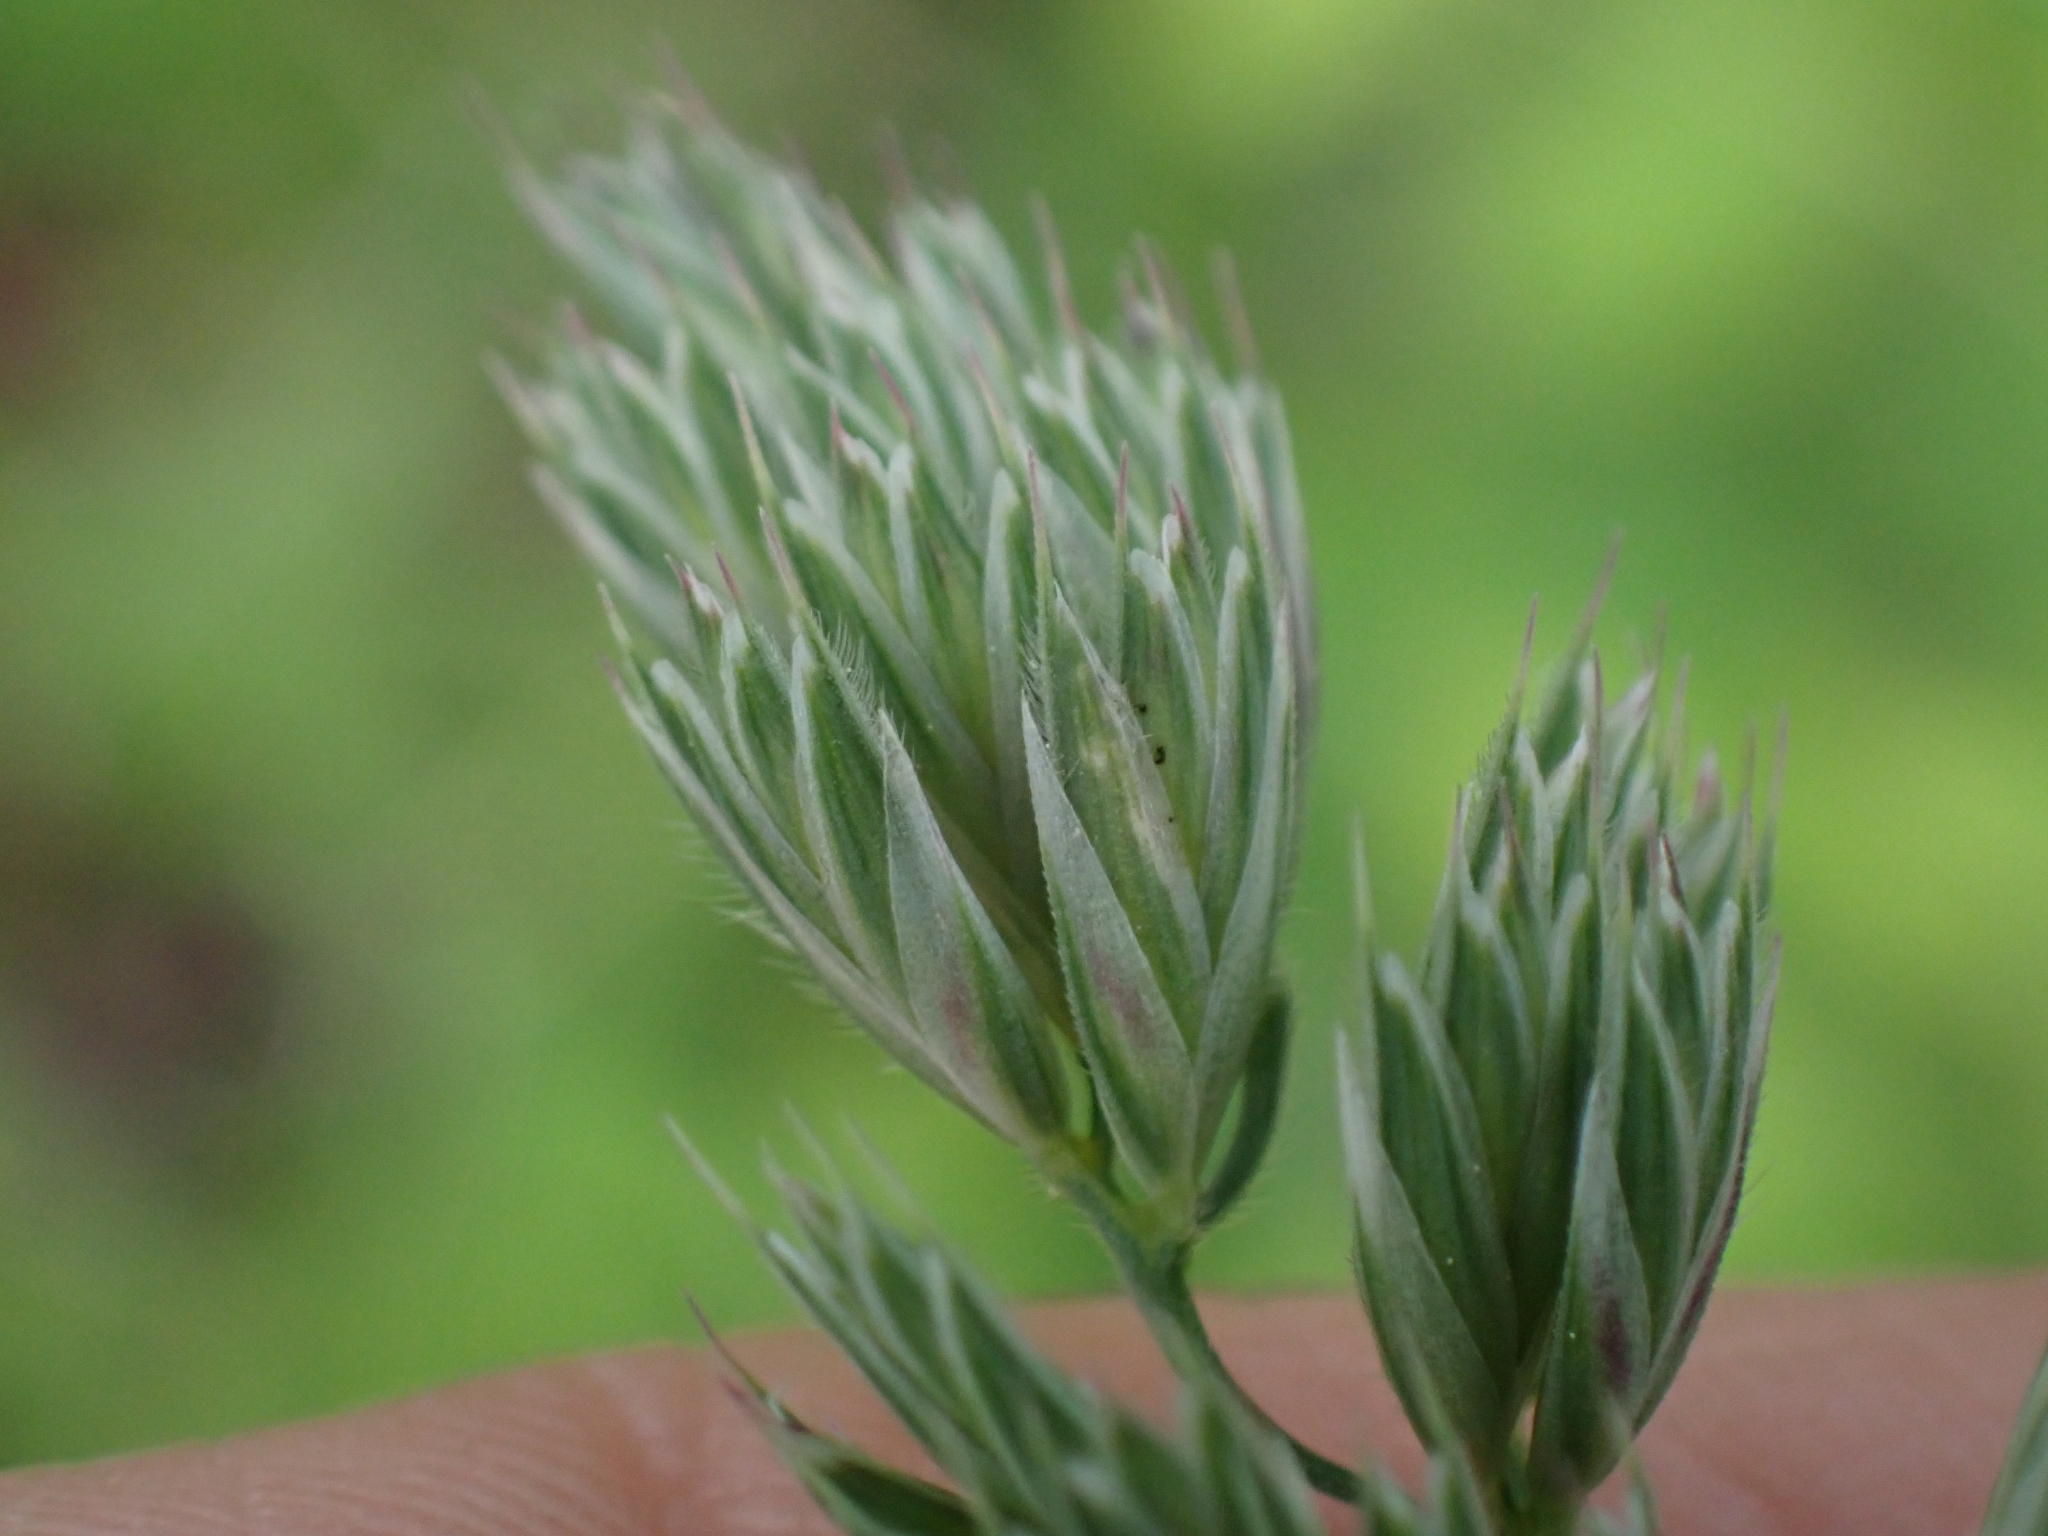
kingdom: Plantae
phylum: Tracheophyta
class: Liliopsida
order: Poales
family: Poaceae
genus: Dactylis
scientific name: Dactylis glomerata
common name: Orchardgrass
